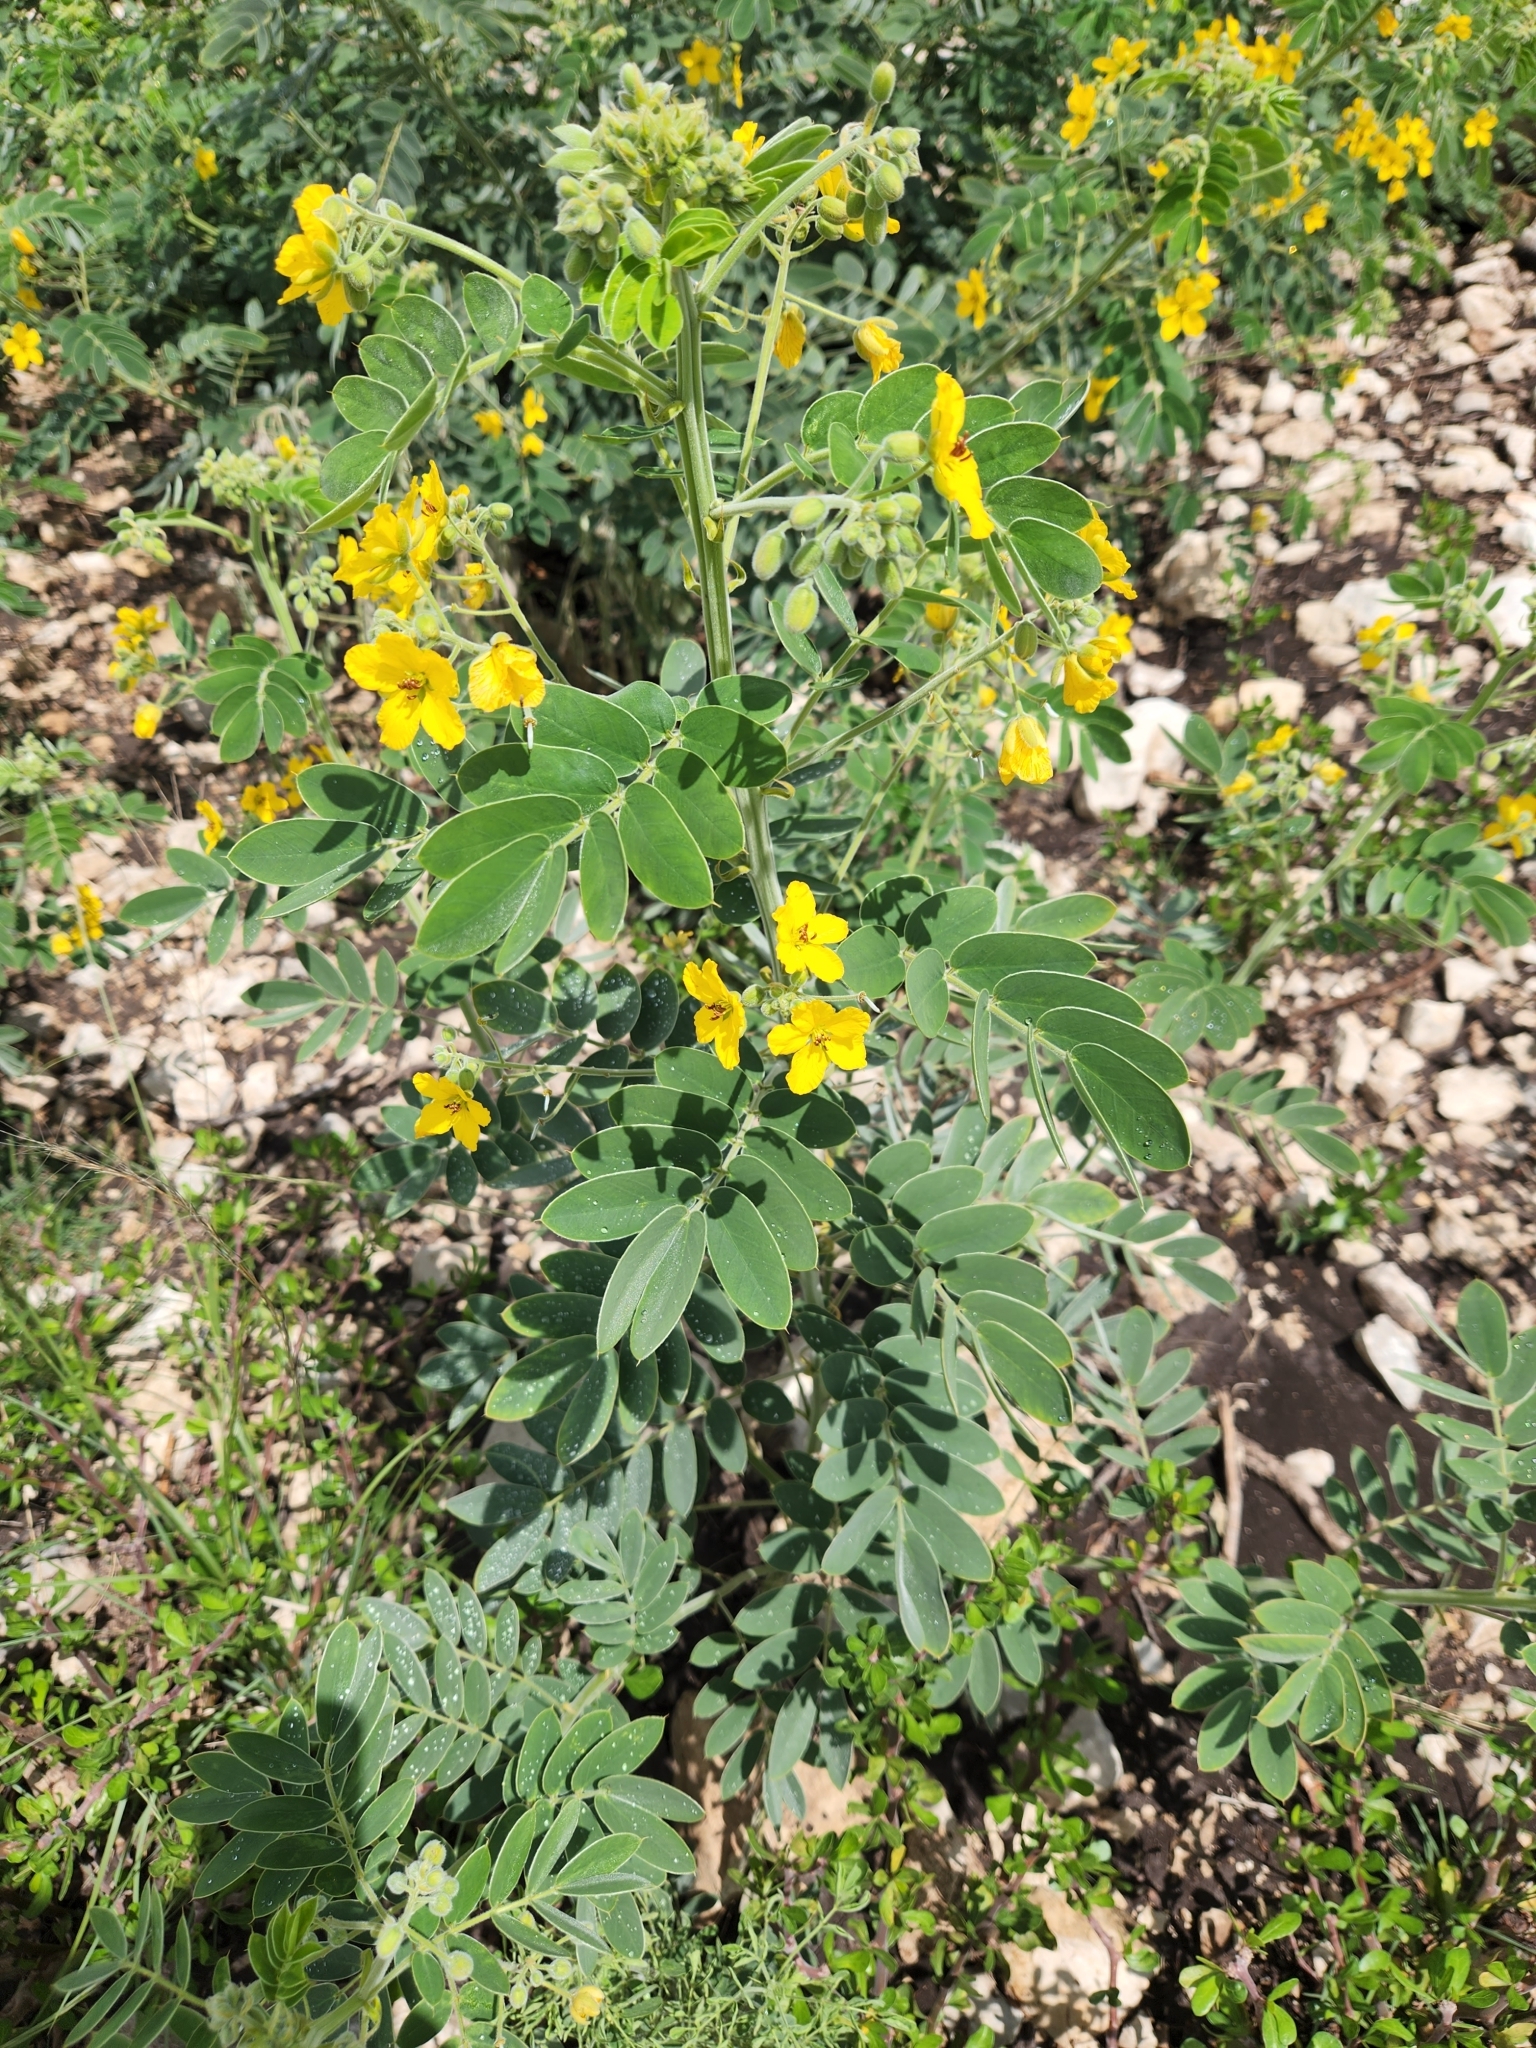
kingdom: Plantae
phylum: Tracheophyta
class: Magnoliopsida
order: Fabales
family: Fabaceae
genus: Senna
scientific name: Senna lindheimeriana
